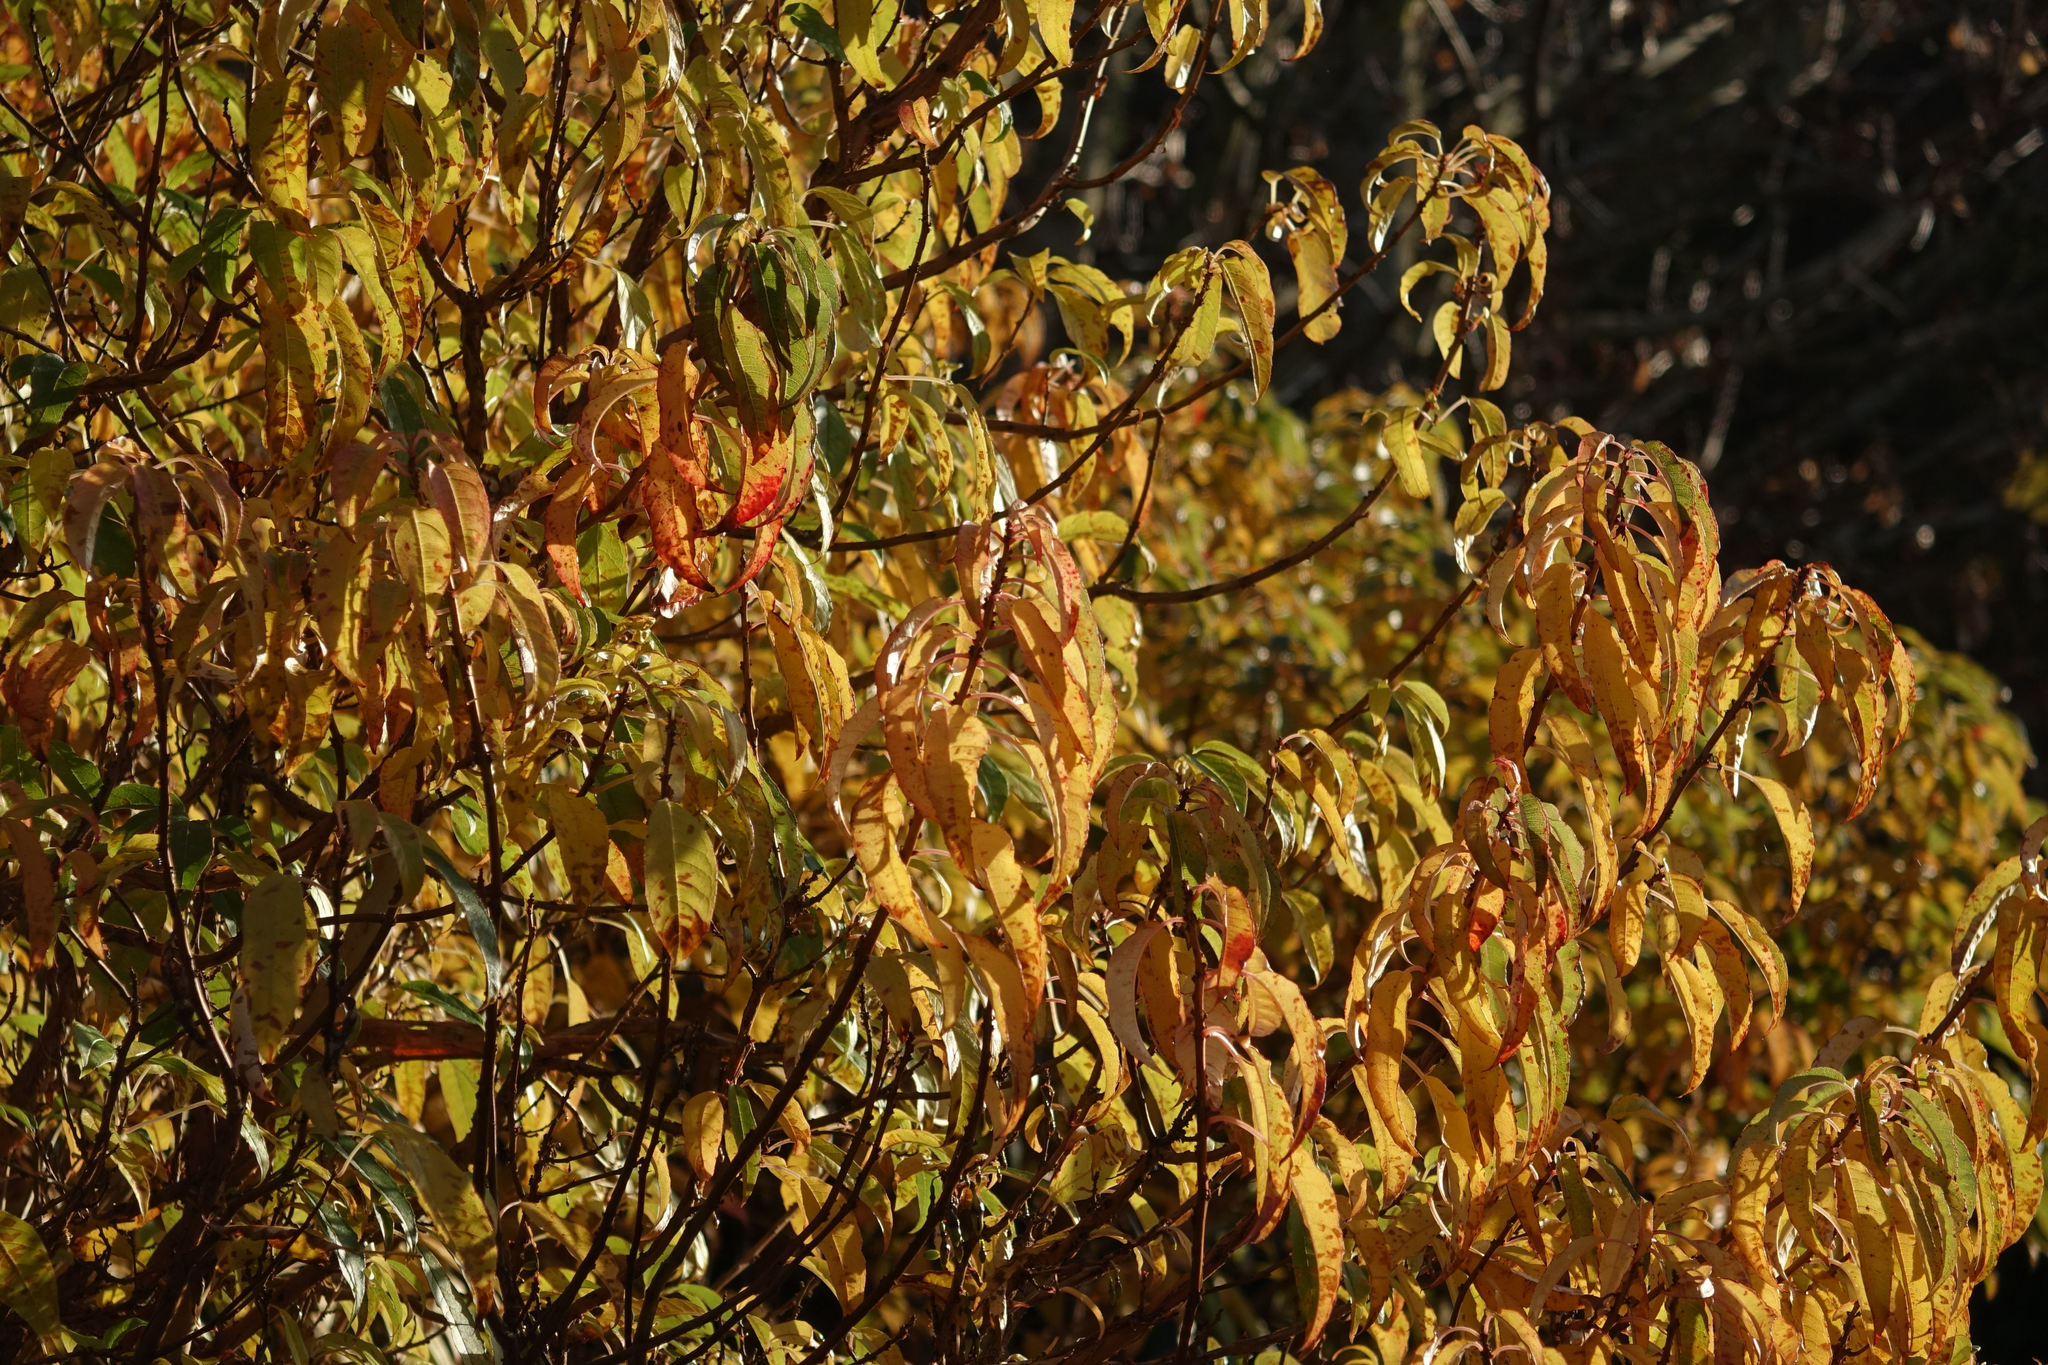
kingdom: Plantae
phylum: Tracheophyta
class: Magnoliopsida
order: Myrtales
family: Onagraceae
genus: Fuchsia
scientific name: Fuchsia excorticata
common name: Tree fuchsia
